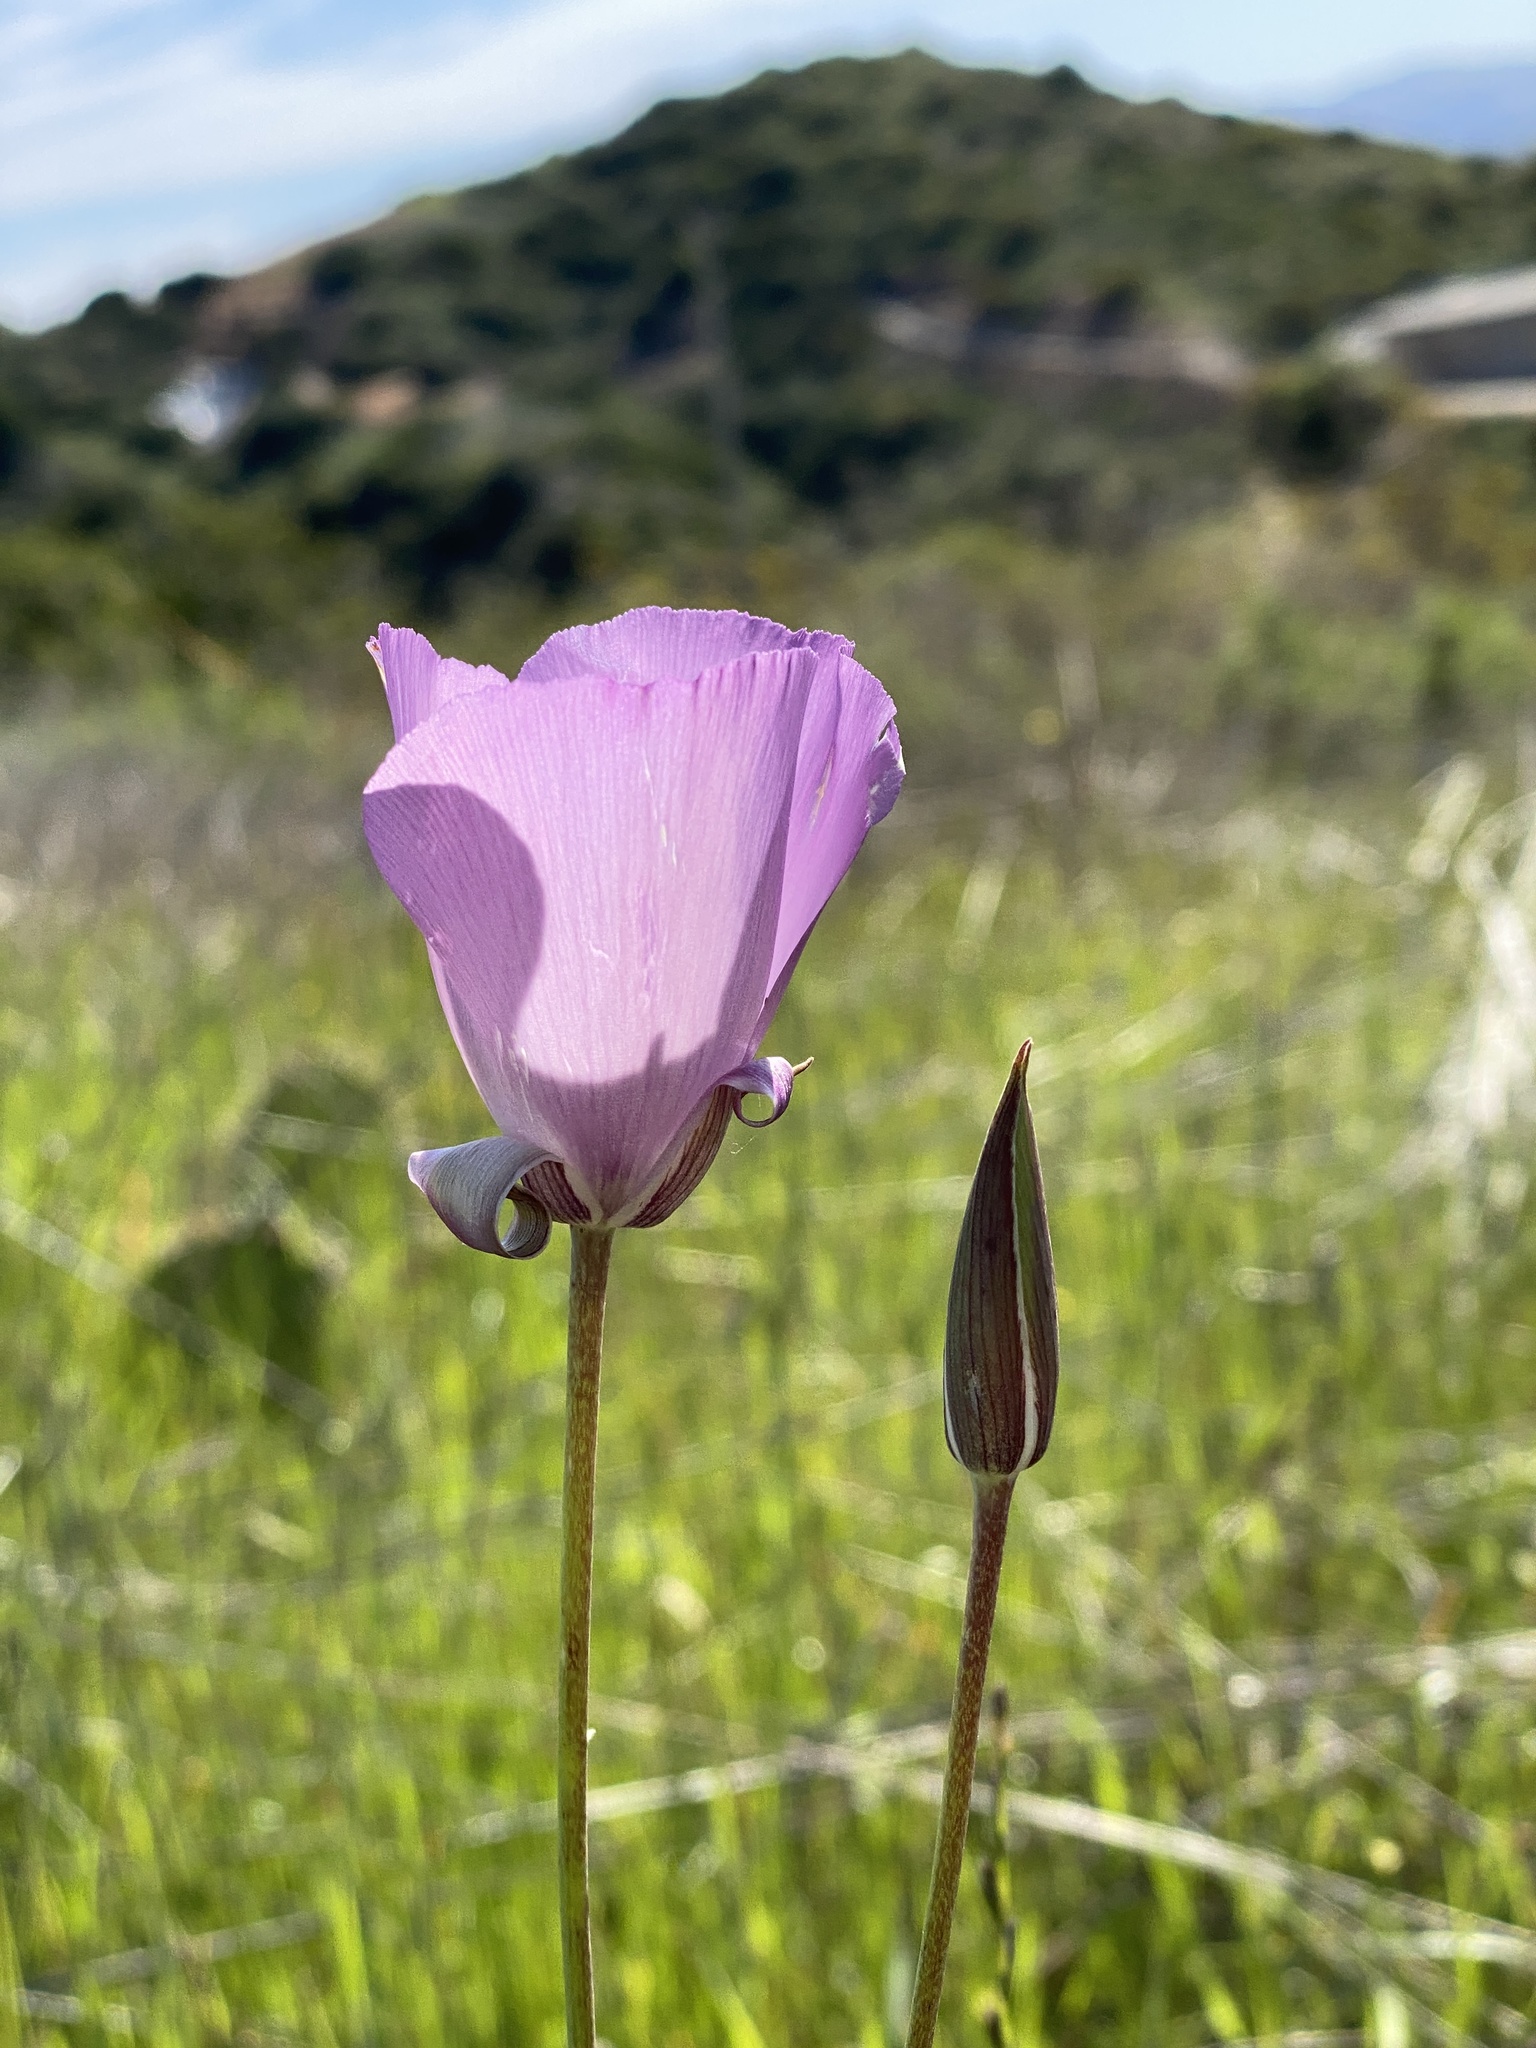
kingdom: Plantae
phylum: Tracheophyta
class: Liliopsida
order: Liliales
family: Liliaceae
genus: Calochortus
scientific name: Calochortus splendens
